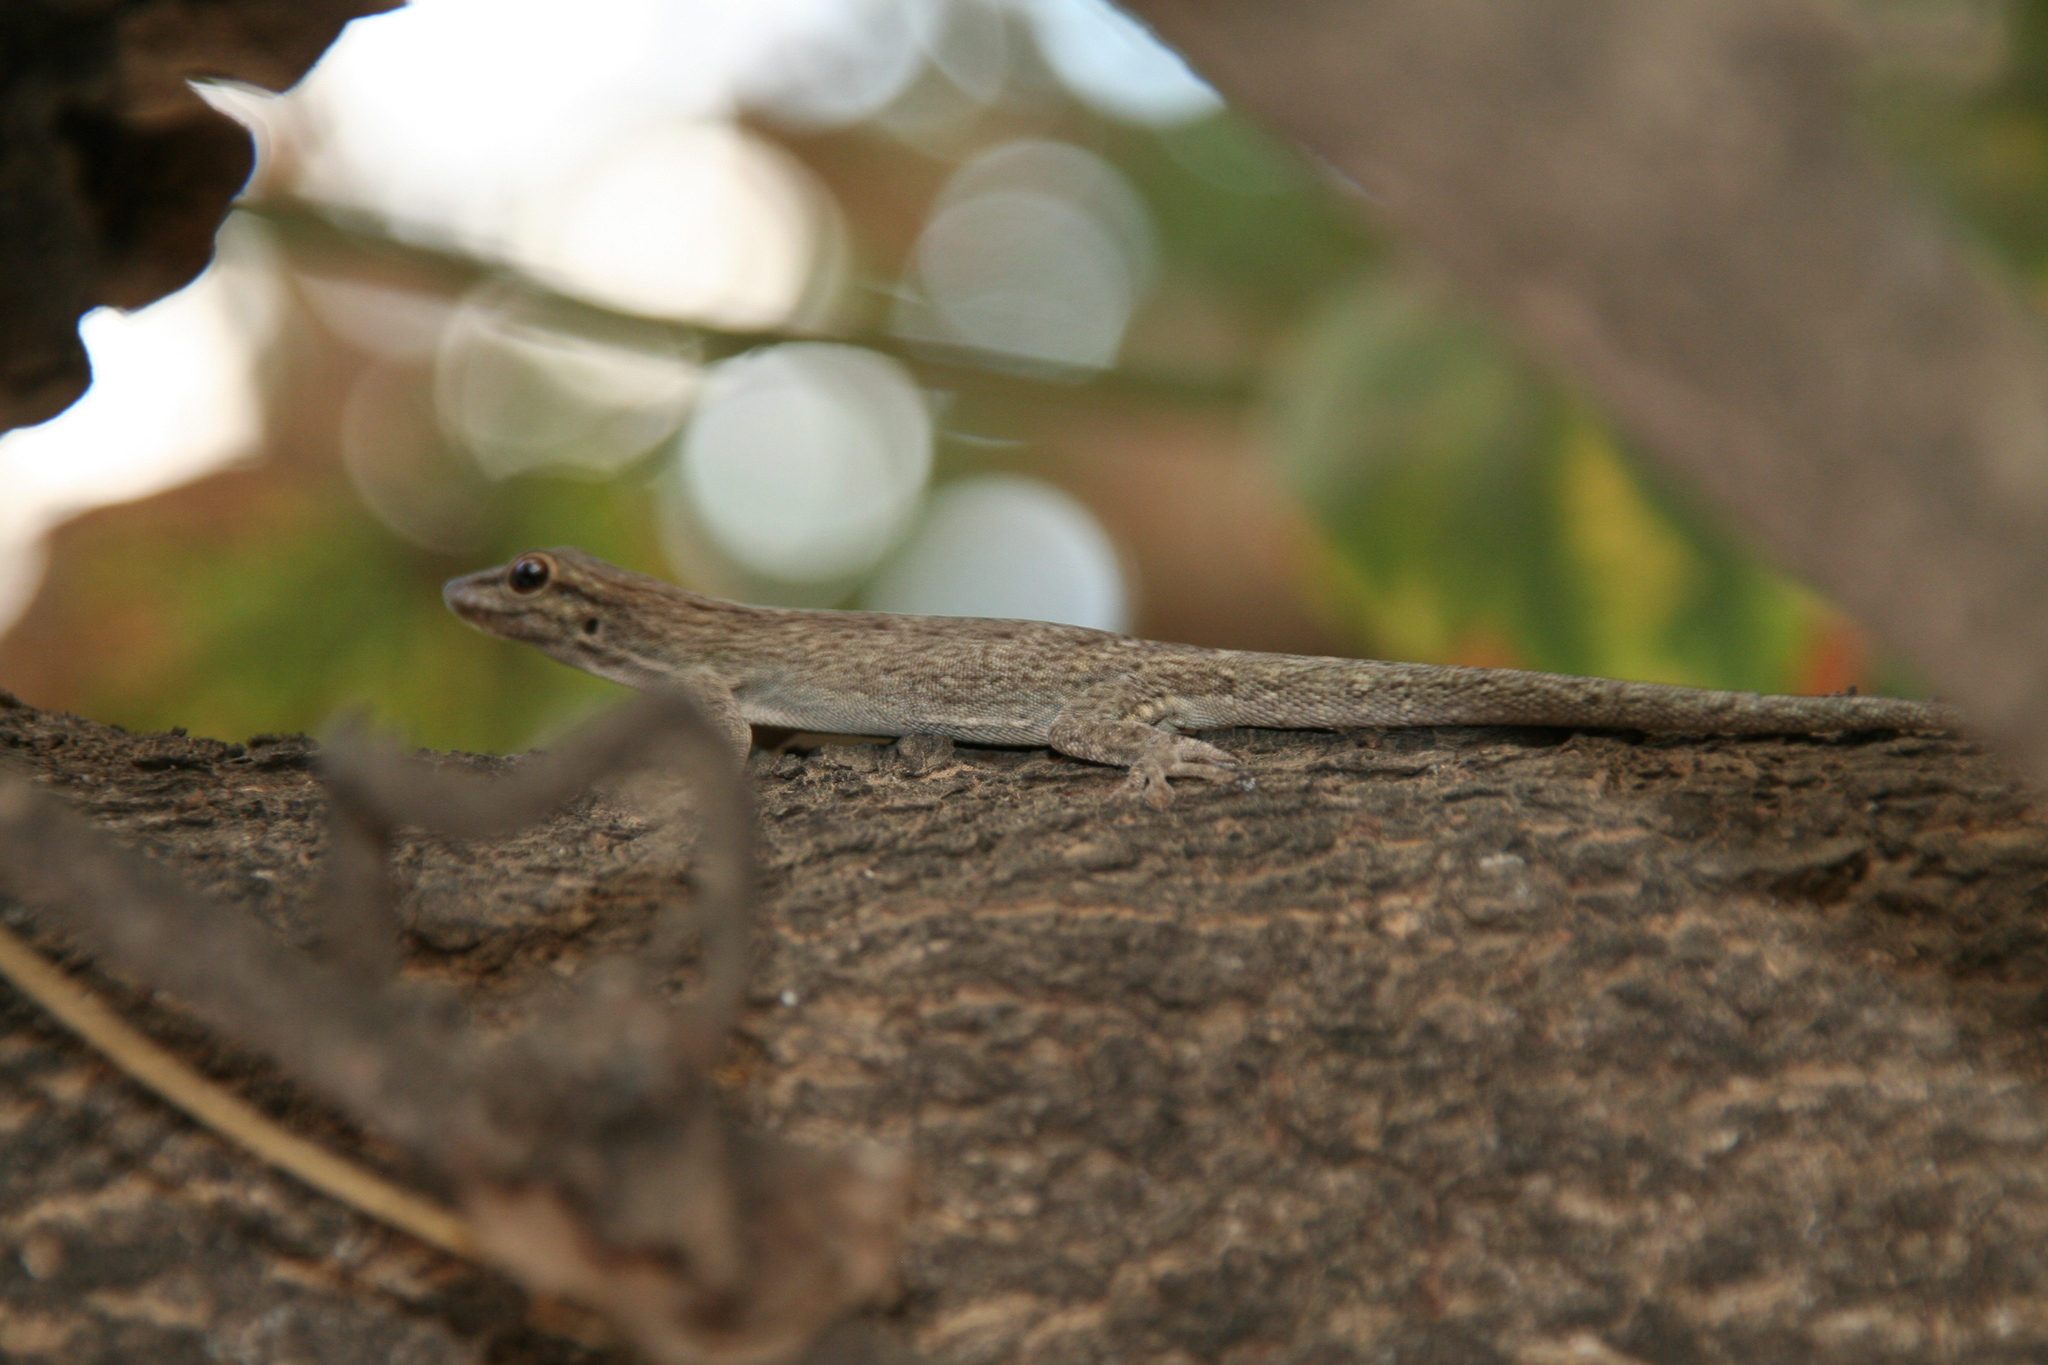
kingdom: Animalia
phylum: Chordata
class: Squamata
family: Gekkonidae
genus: Phelsuma
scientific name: Phelsuma mutabilis
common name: Thick tail gecko
